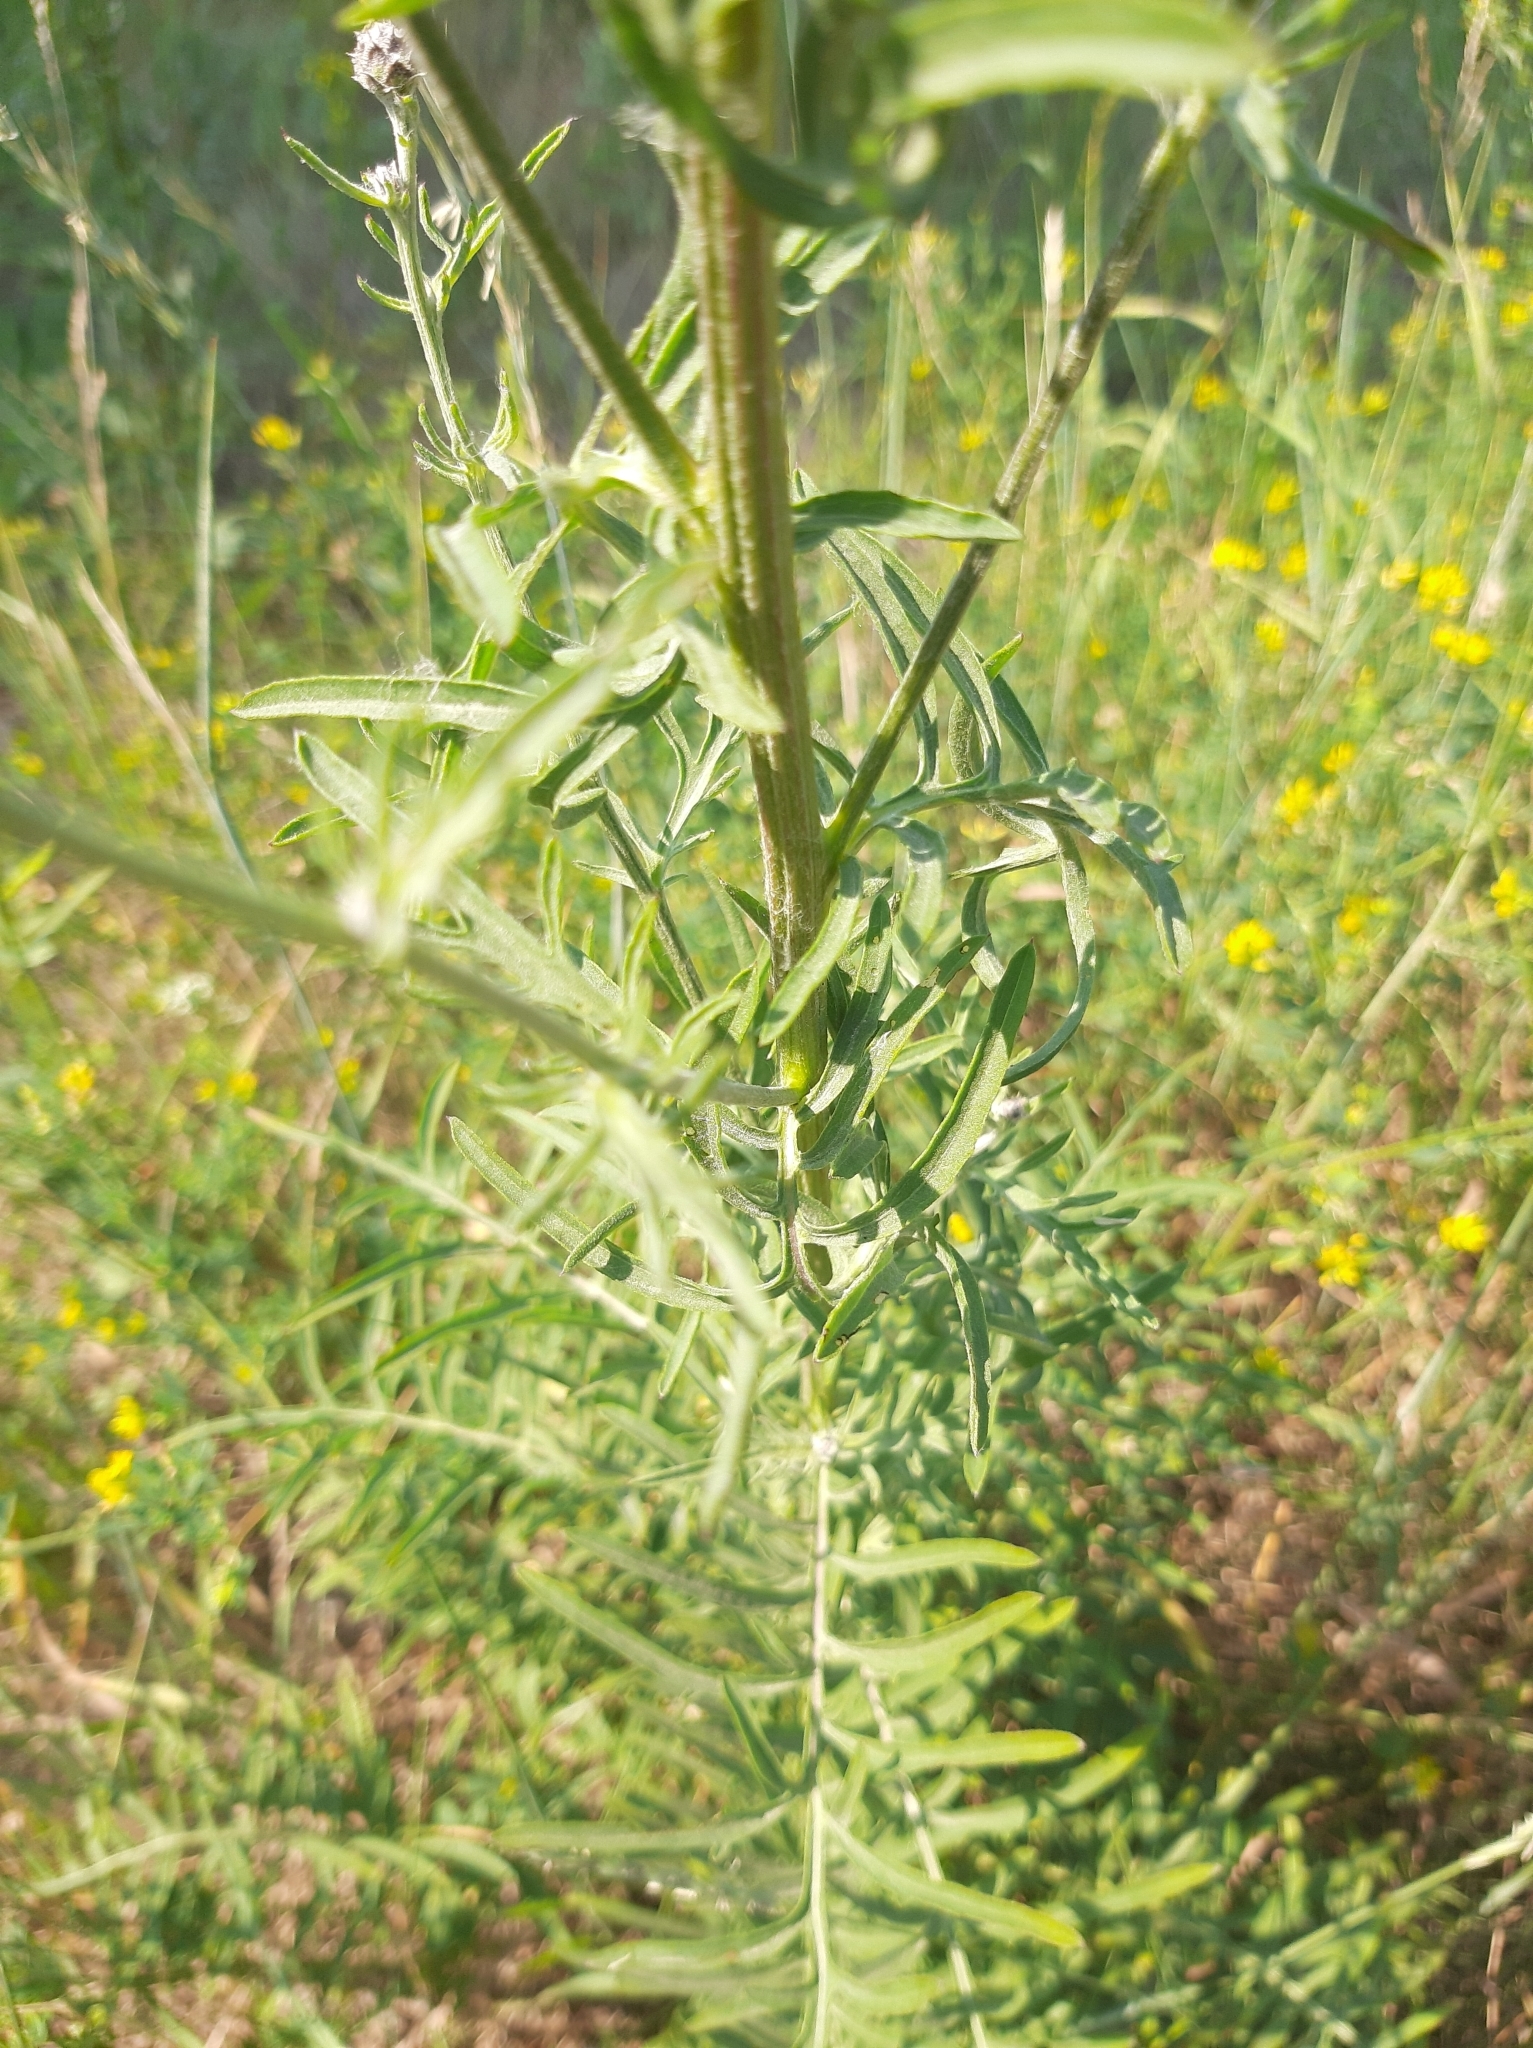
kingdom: Plantae
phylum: Tracheophyta
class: Magnoliopsida
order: Asterales
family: Asteraceae
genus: Centaurea
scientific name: Centaurea scabiosa
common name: Greater knapweed
